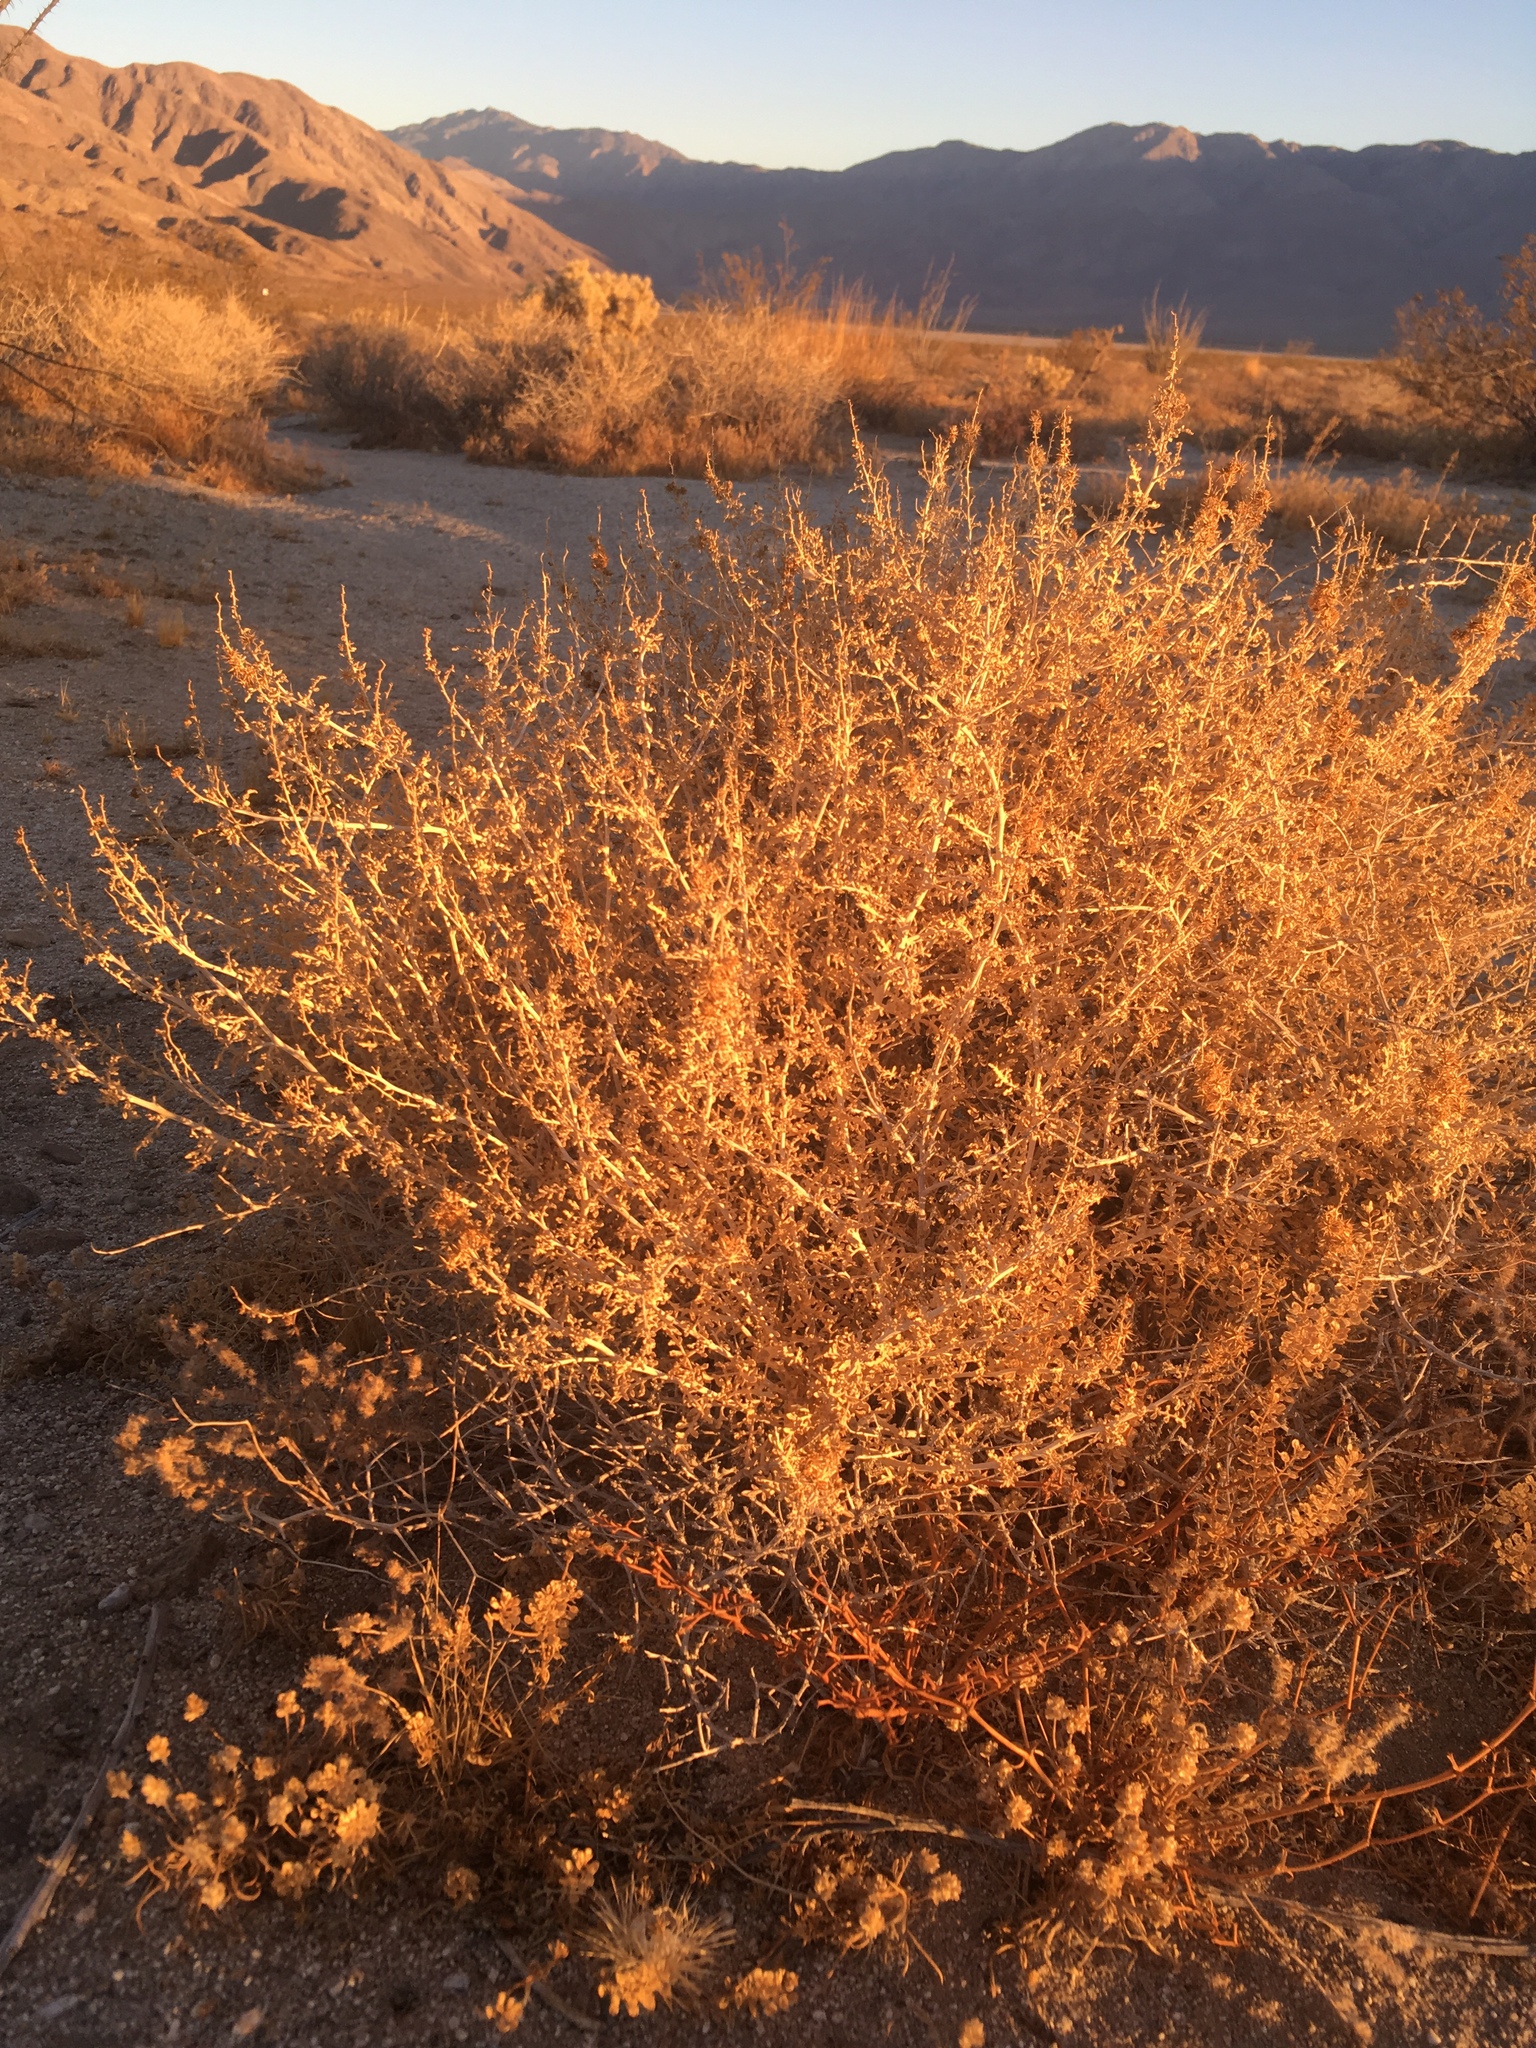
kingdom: Plantae
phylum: Tracheophyta
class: Magnoliopsida
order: Asterales
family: Asteraceae
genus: Ambrosia
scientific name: Ambrosia dumosa
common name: Bur-sage
